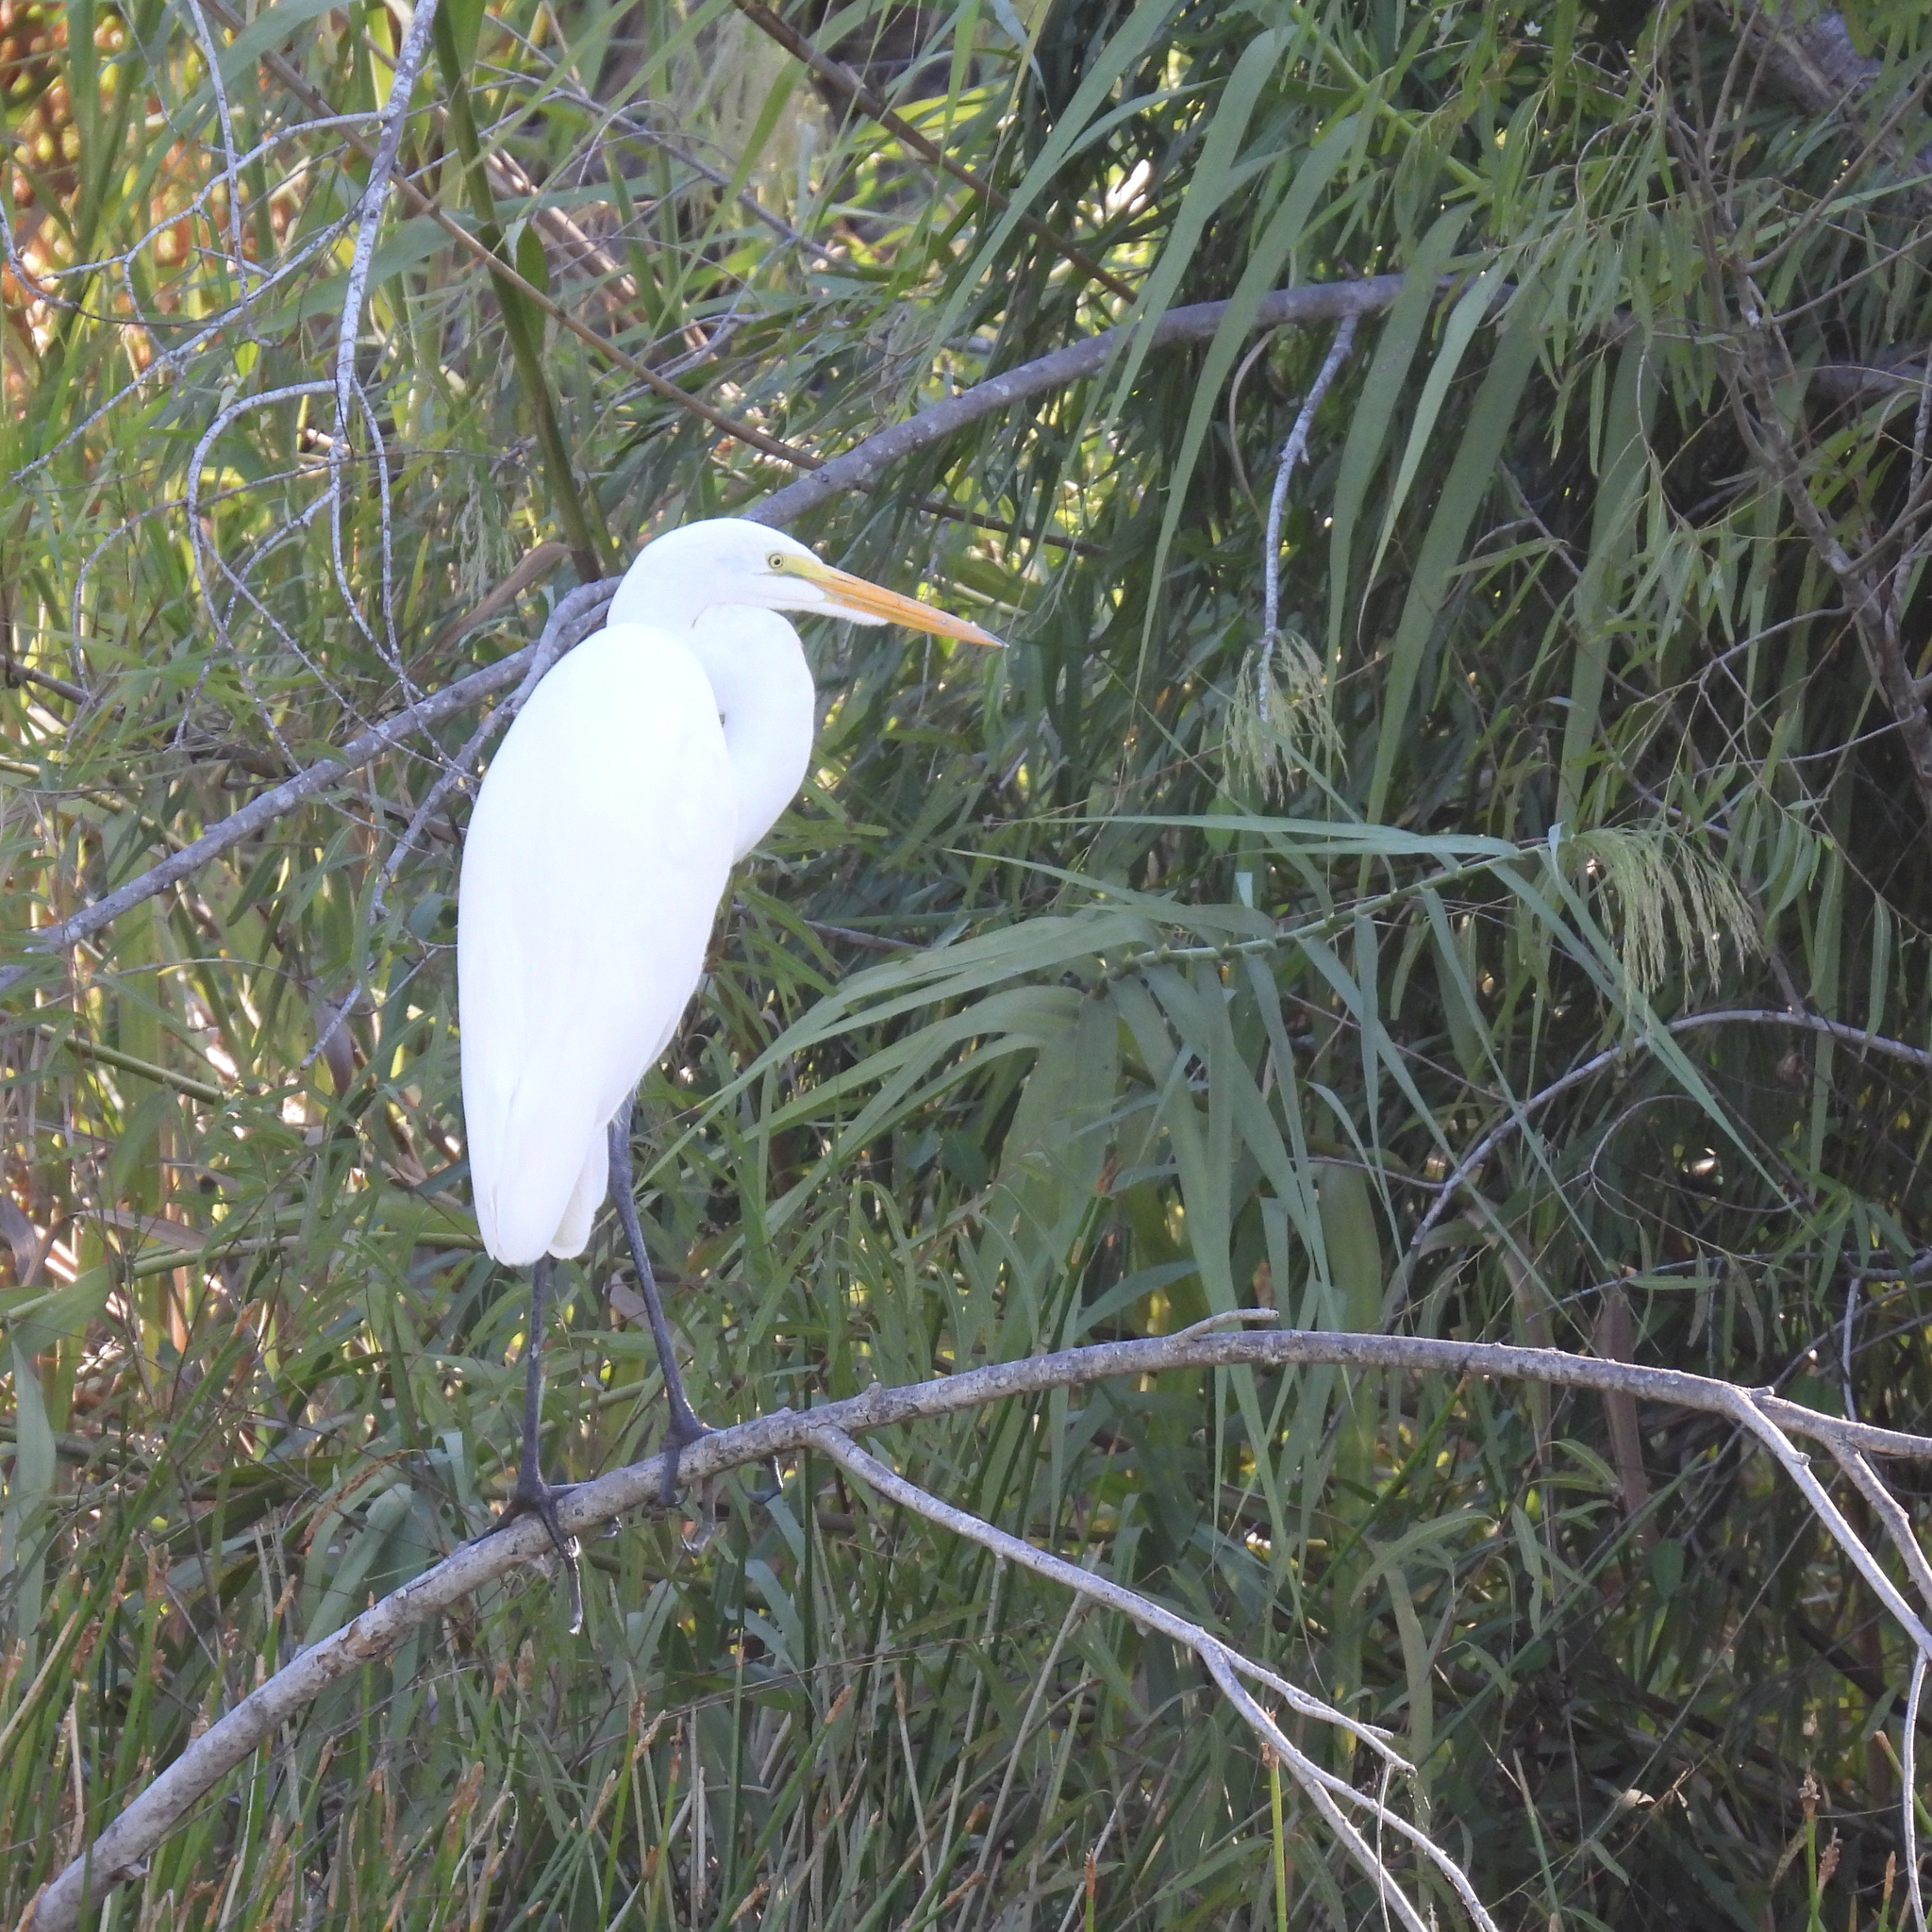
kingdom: Animalia
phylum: Chordata
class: Aves
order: Pelecaniformes
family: Ardeidae
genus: Ardea
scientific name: Ardea alba
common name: Great egret
